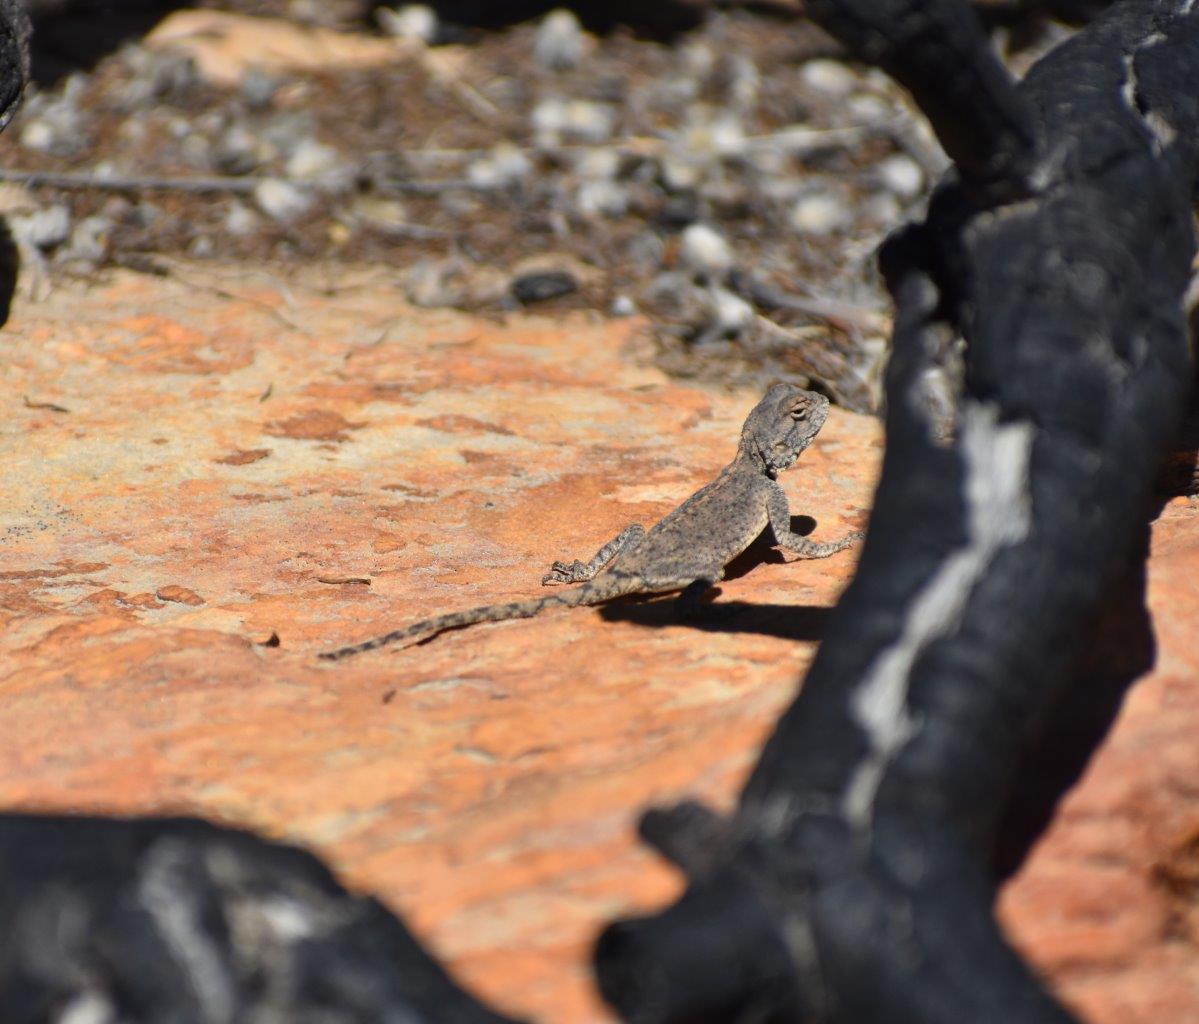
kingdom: Animalia
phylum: Chordata
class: Squamata
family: Agamidae
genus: Agama
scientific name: Agama atra
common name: Southern african rock agama
